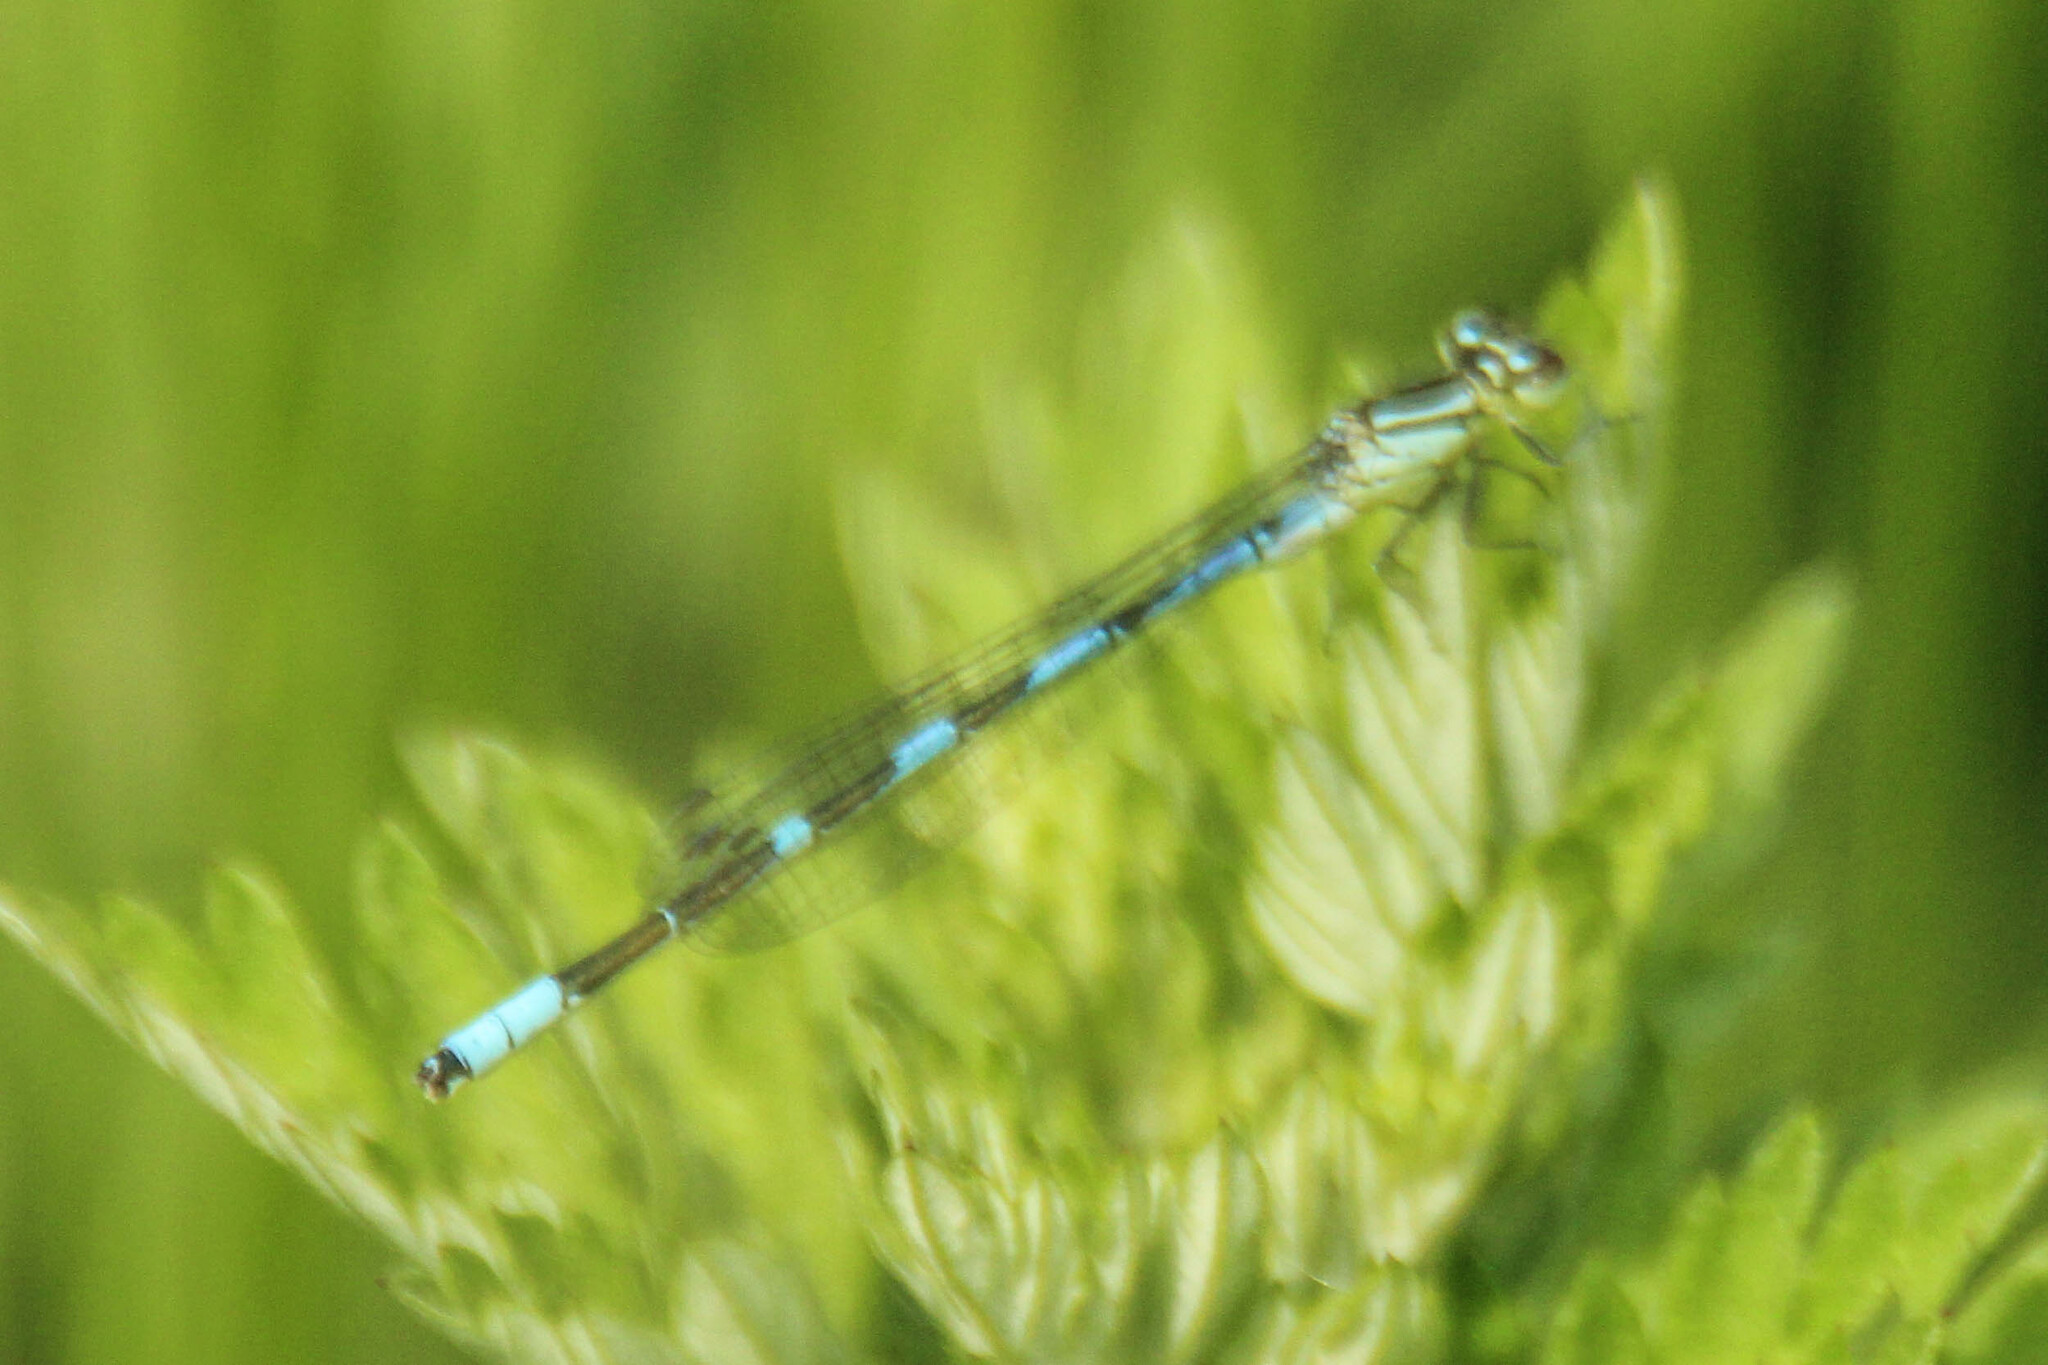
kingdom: Animalia
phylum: Arthropoda
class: Insecta
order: Odonata
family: Coenagrionidae
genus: Coenagrion
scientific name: Coenagrion lanceolatum
